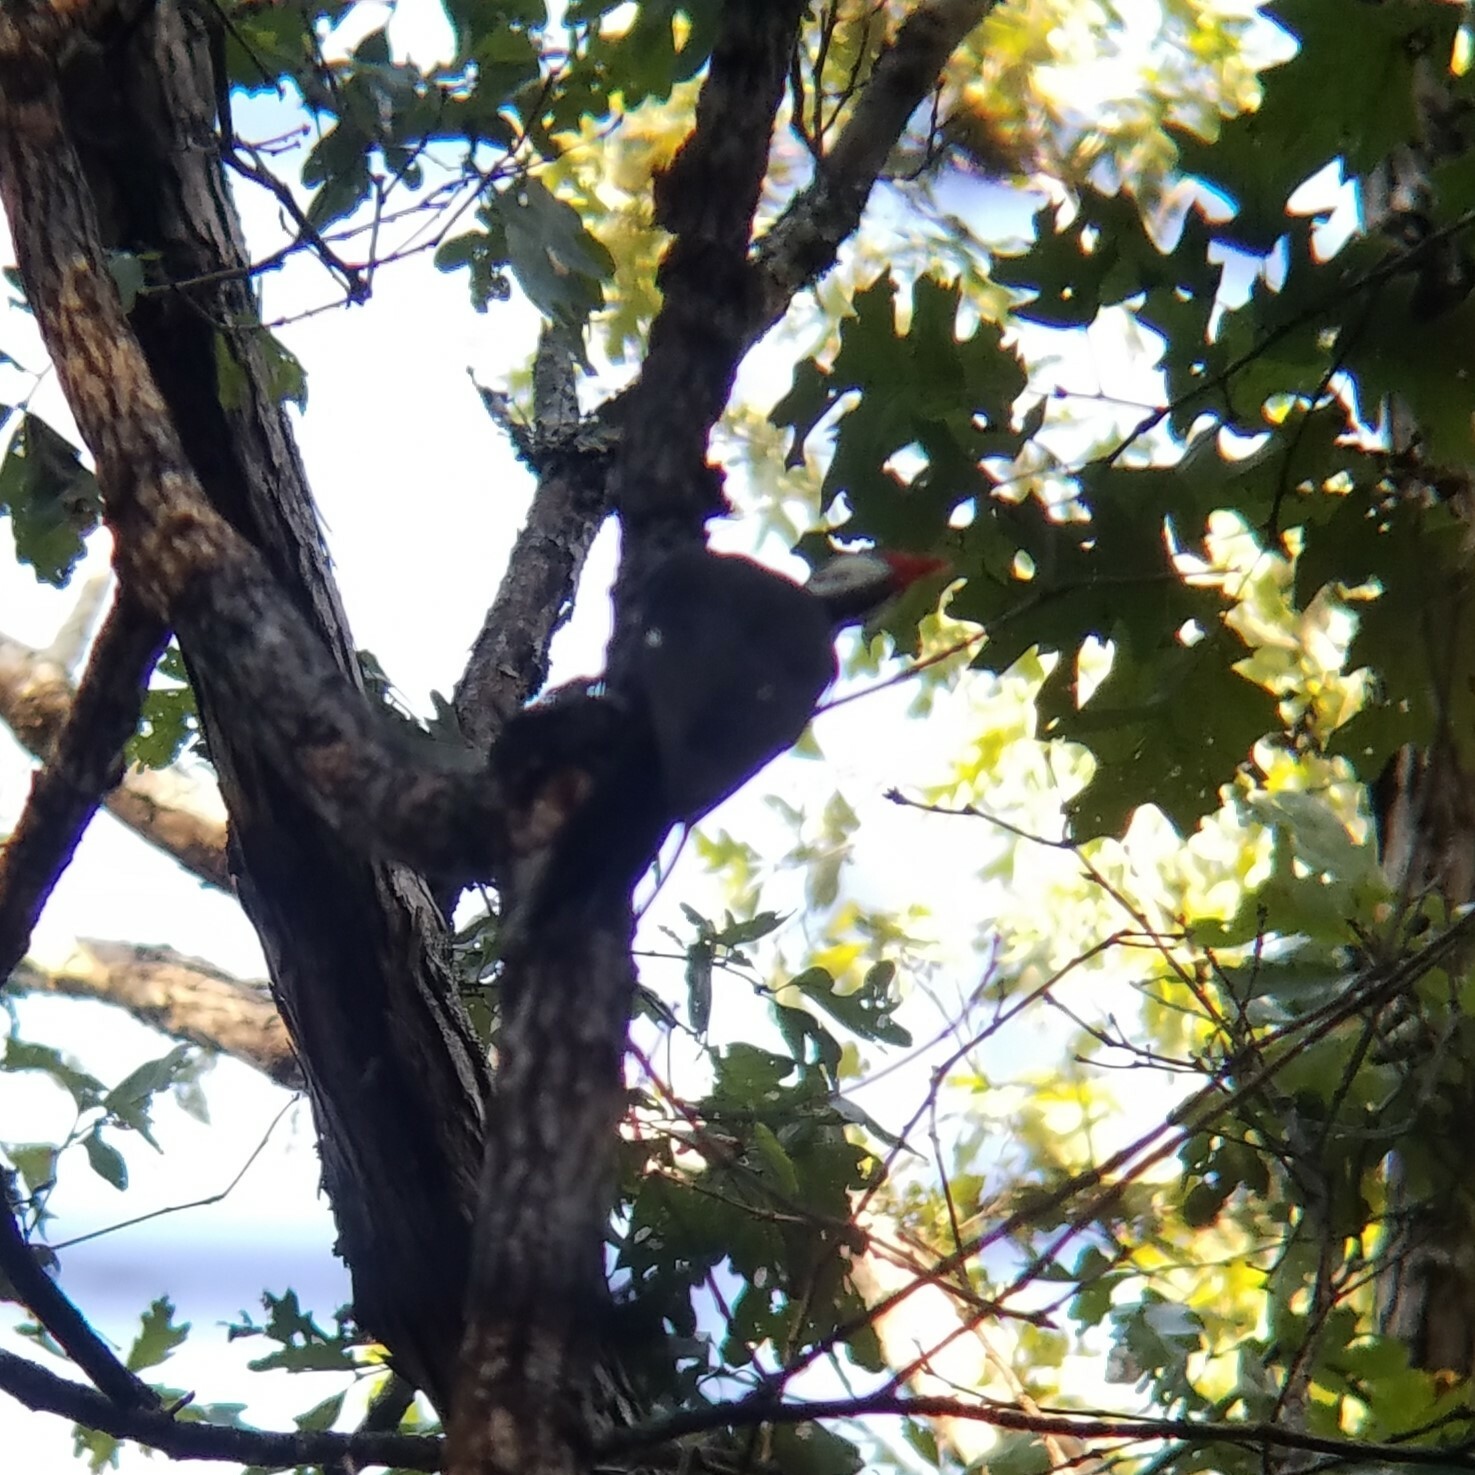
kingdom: Animalia
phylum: Chordata
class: Aves
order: Piciformes
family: Picidae
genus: Dryocopus
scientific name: Dryocopus pileatus
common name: Pileated woodpecker
